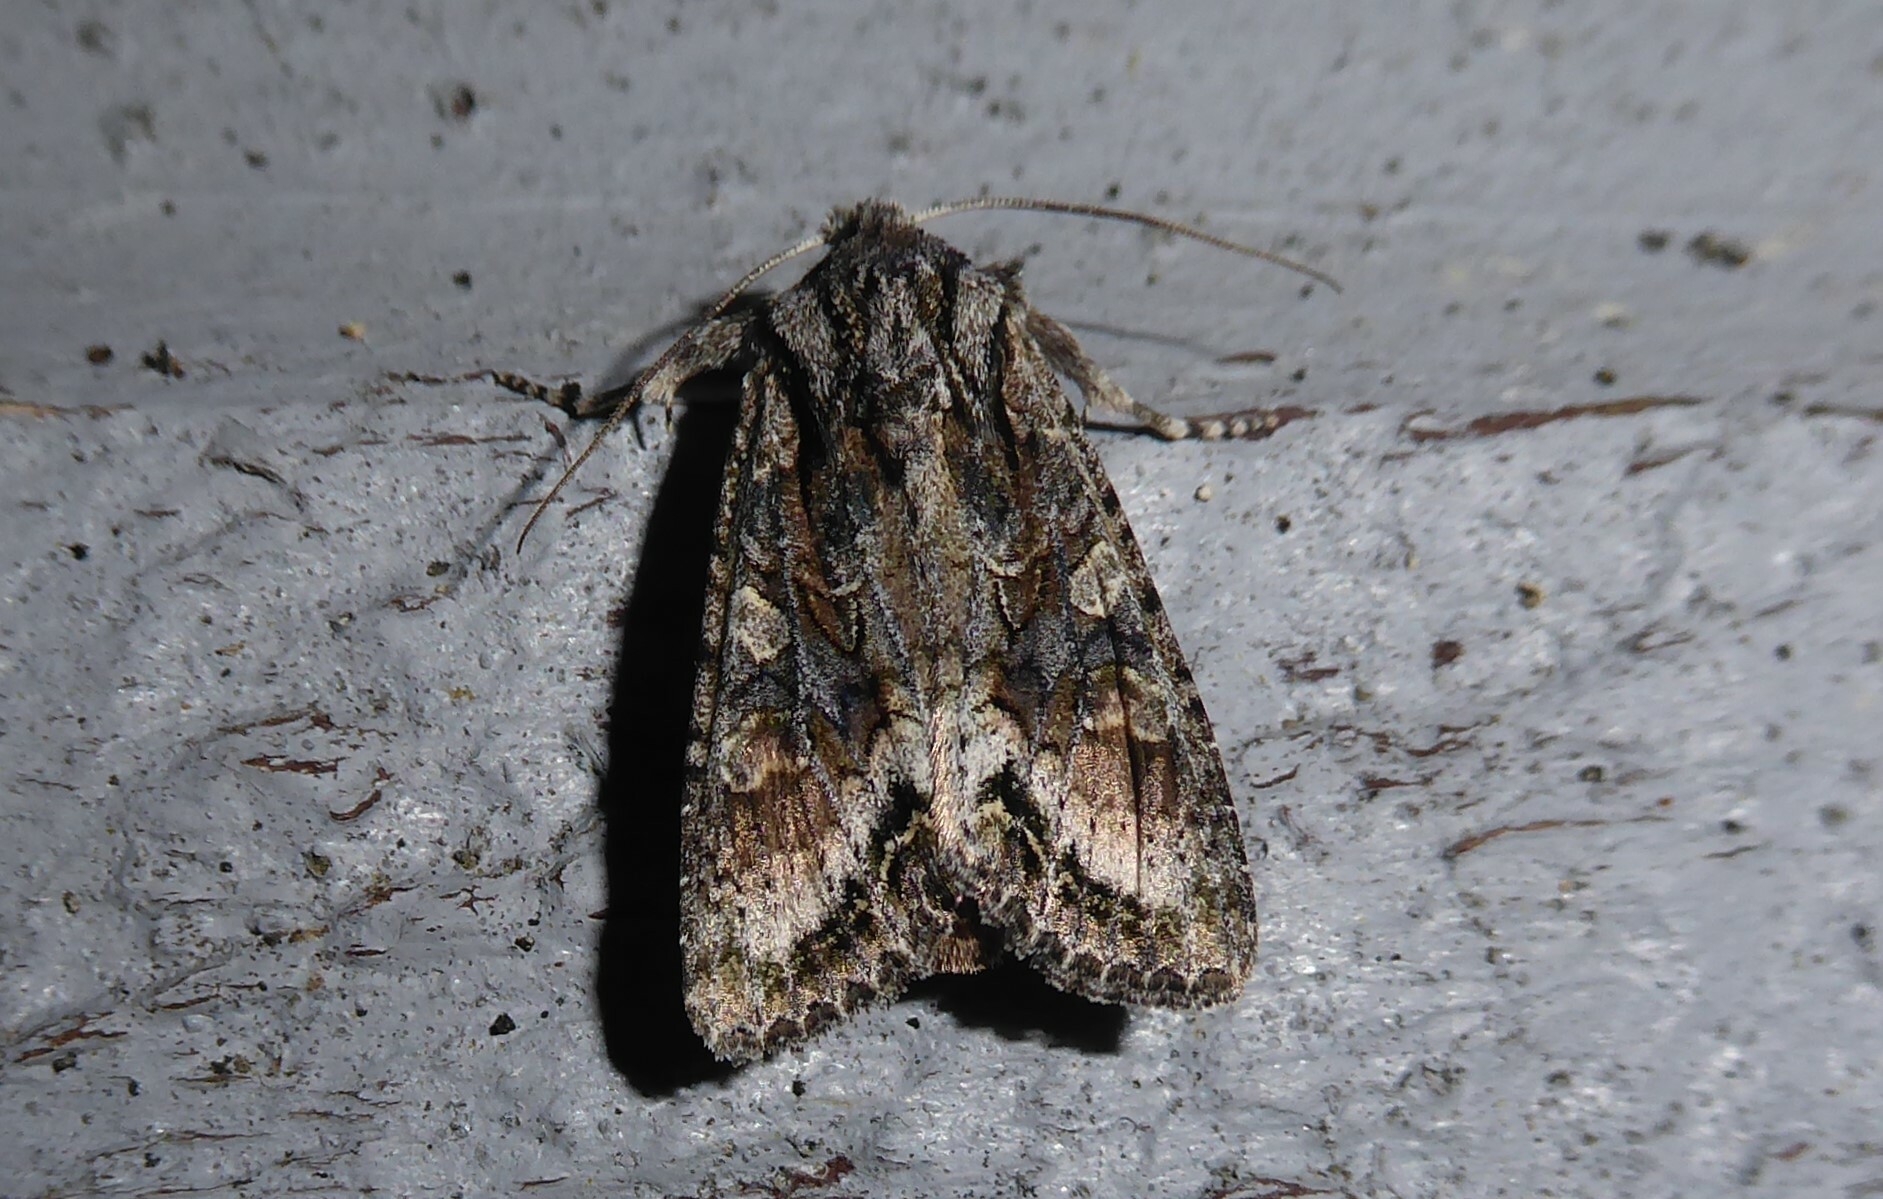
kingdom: Animalia
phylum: Arthropoda
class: Insecta
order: Lepidoptera
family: Noctuidae
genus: Ichneutica
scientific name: Ichneutica mutans
